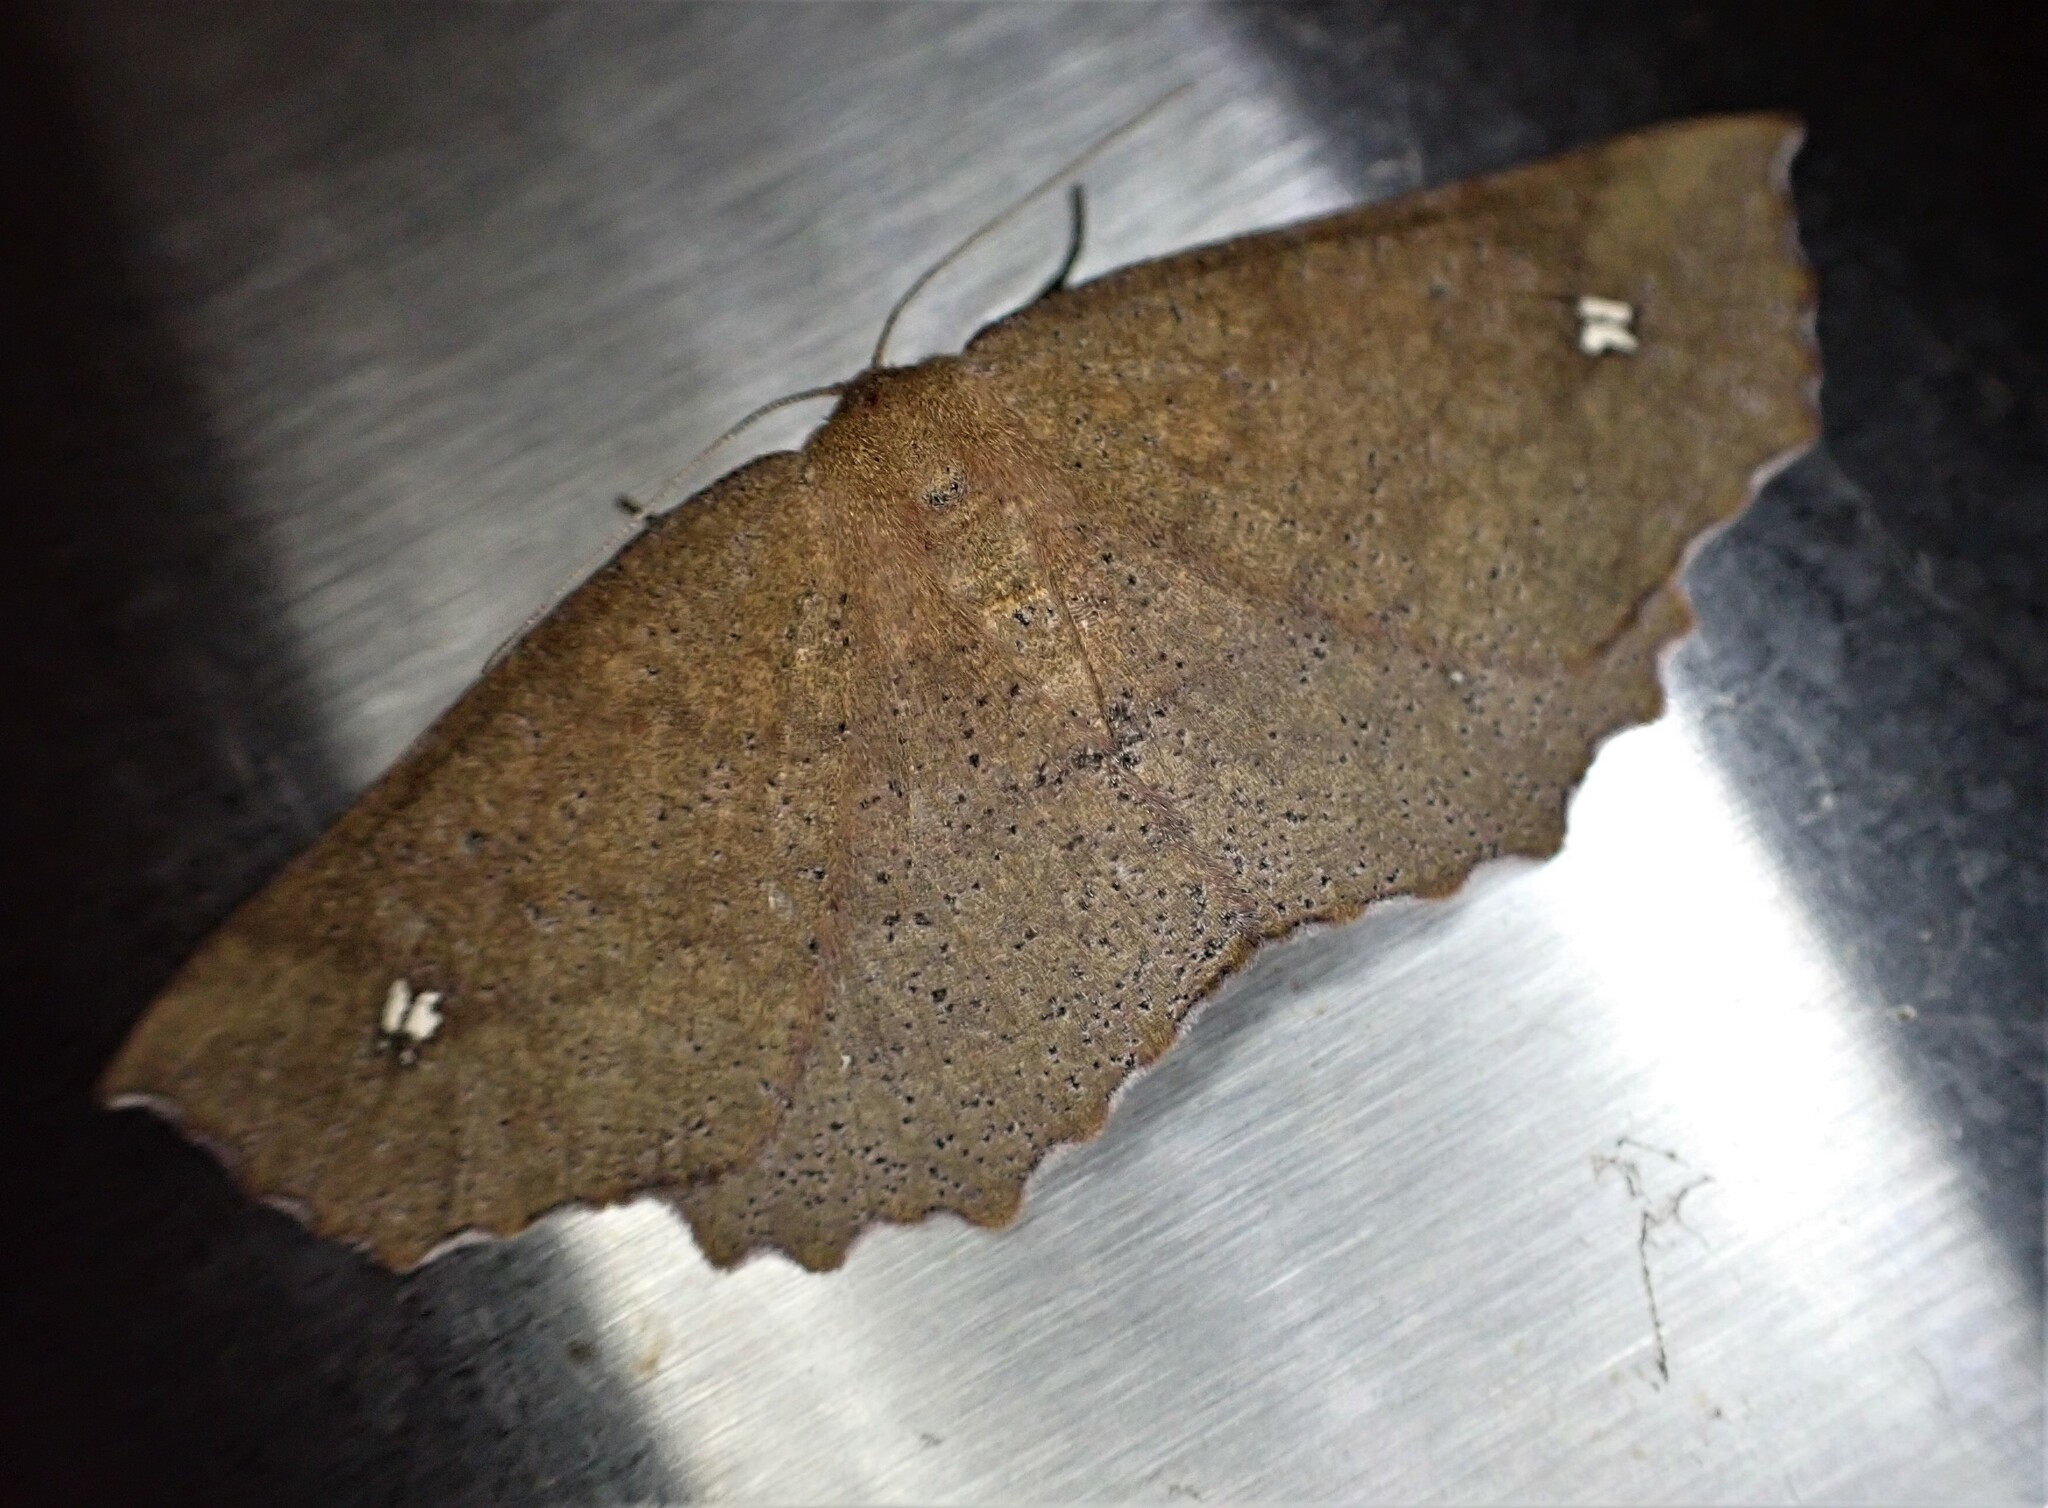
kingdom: Animalia
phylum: Arthropoda
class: Insecta
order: Lepidoptera
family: Geometridae
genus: Xyridacma
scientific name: Xyridacma ustaria
